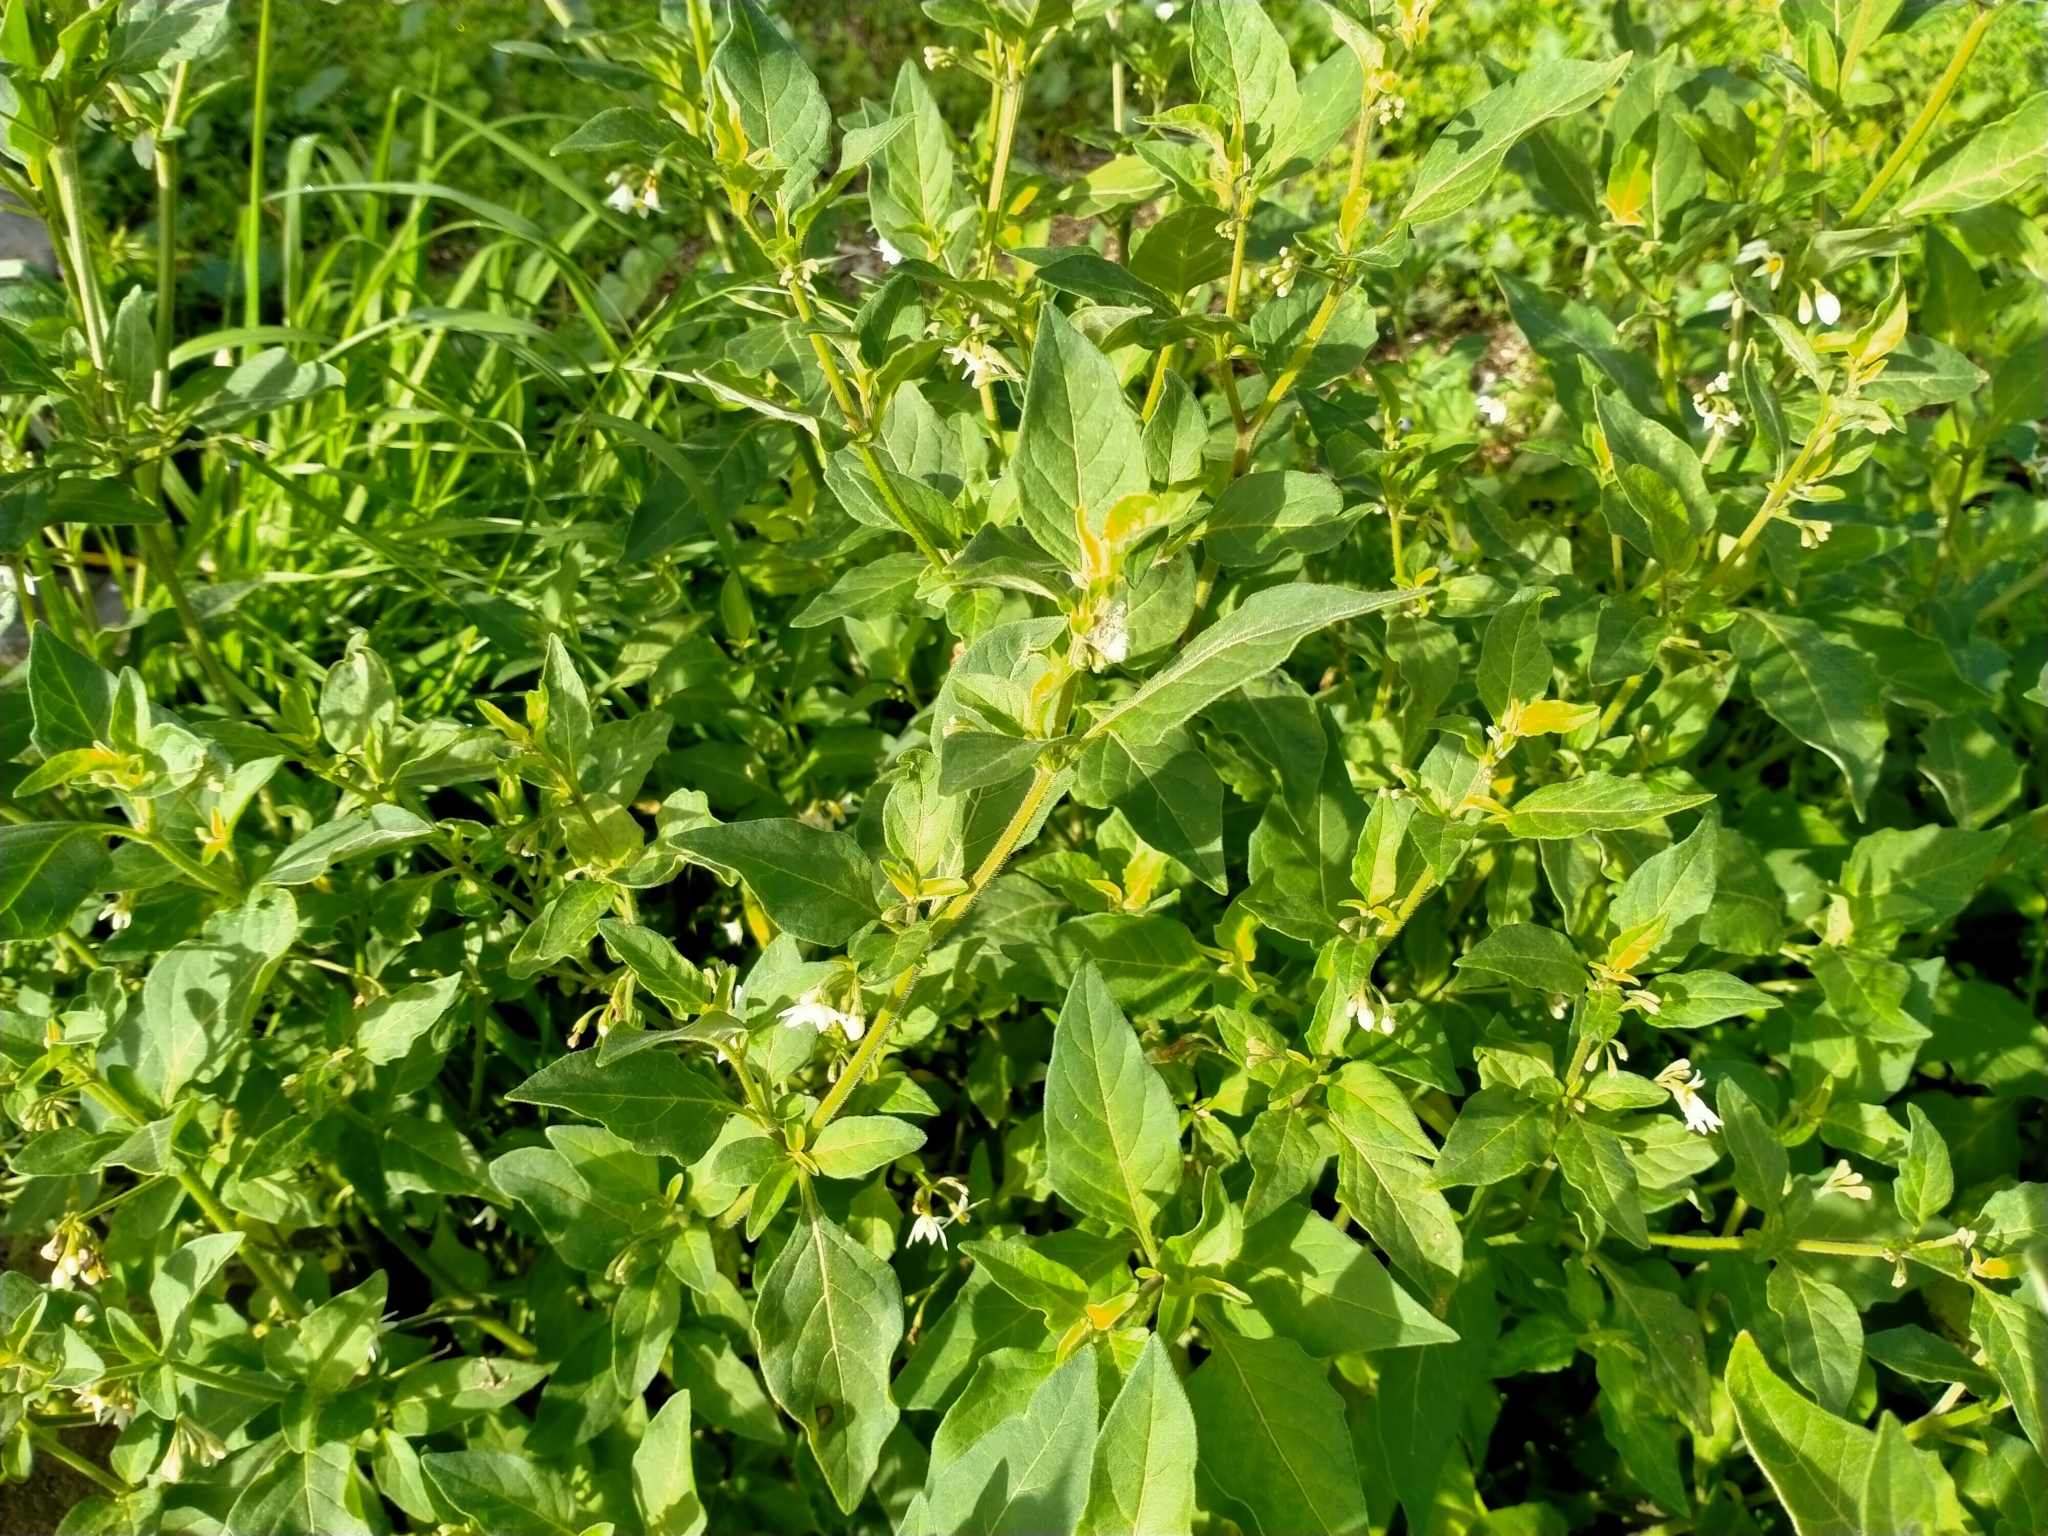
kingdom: Plantae
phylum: Tracheophyta
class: Magnoliopsida
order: Solanales
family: Solanaceae
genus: Solanum
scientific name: Solanum chenopodioides
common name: Tall nightshade
